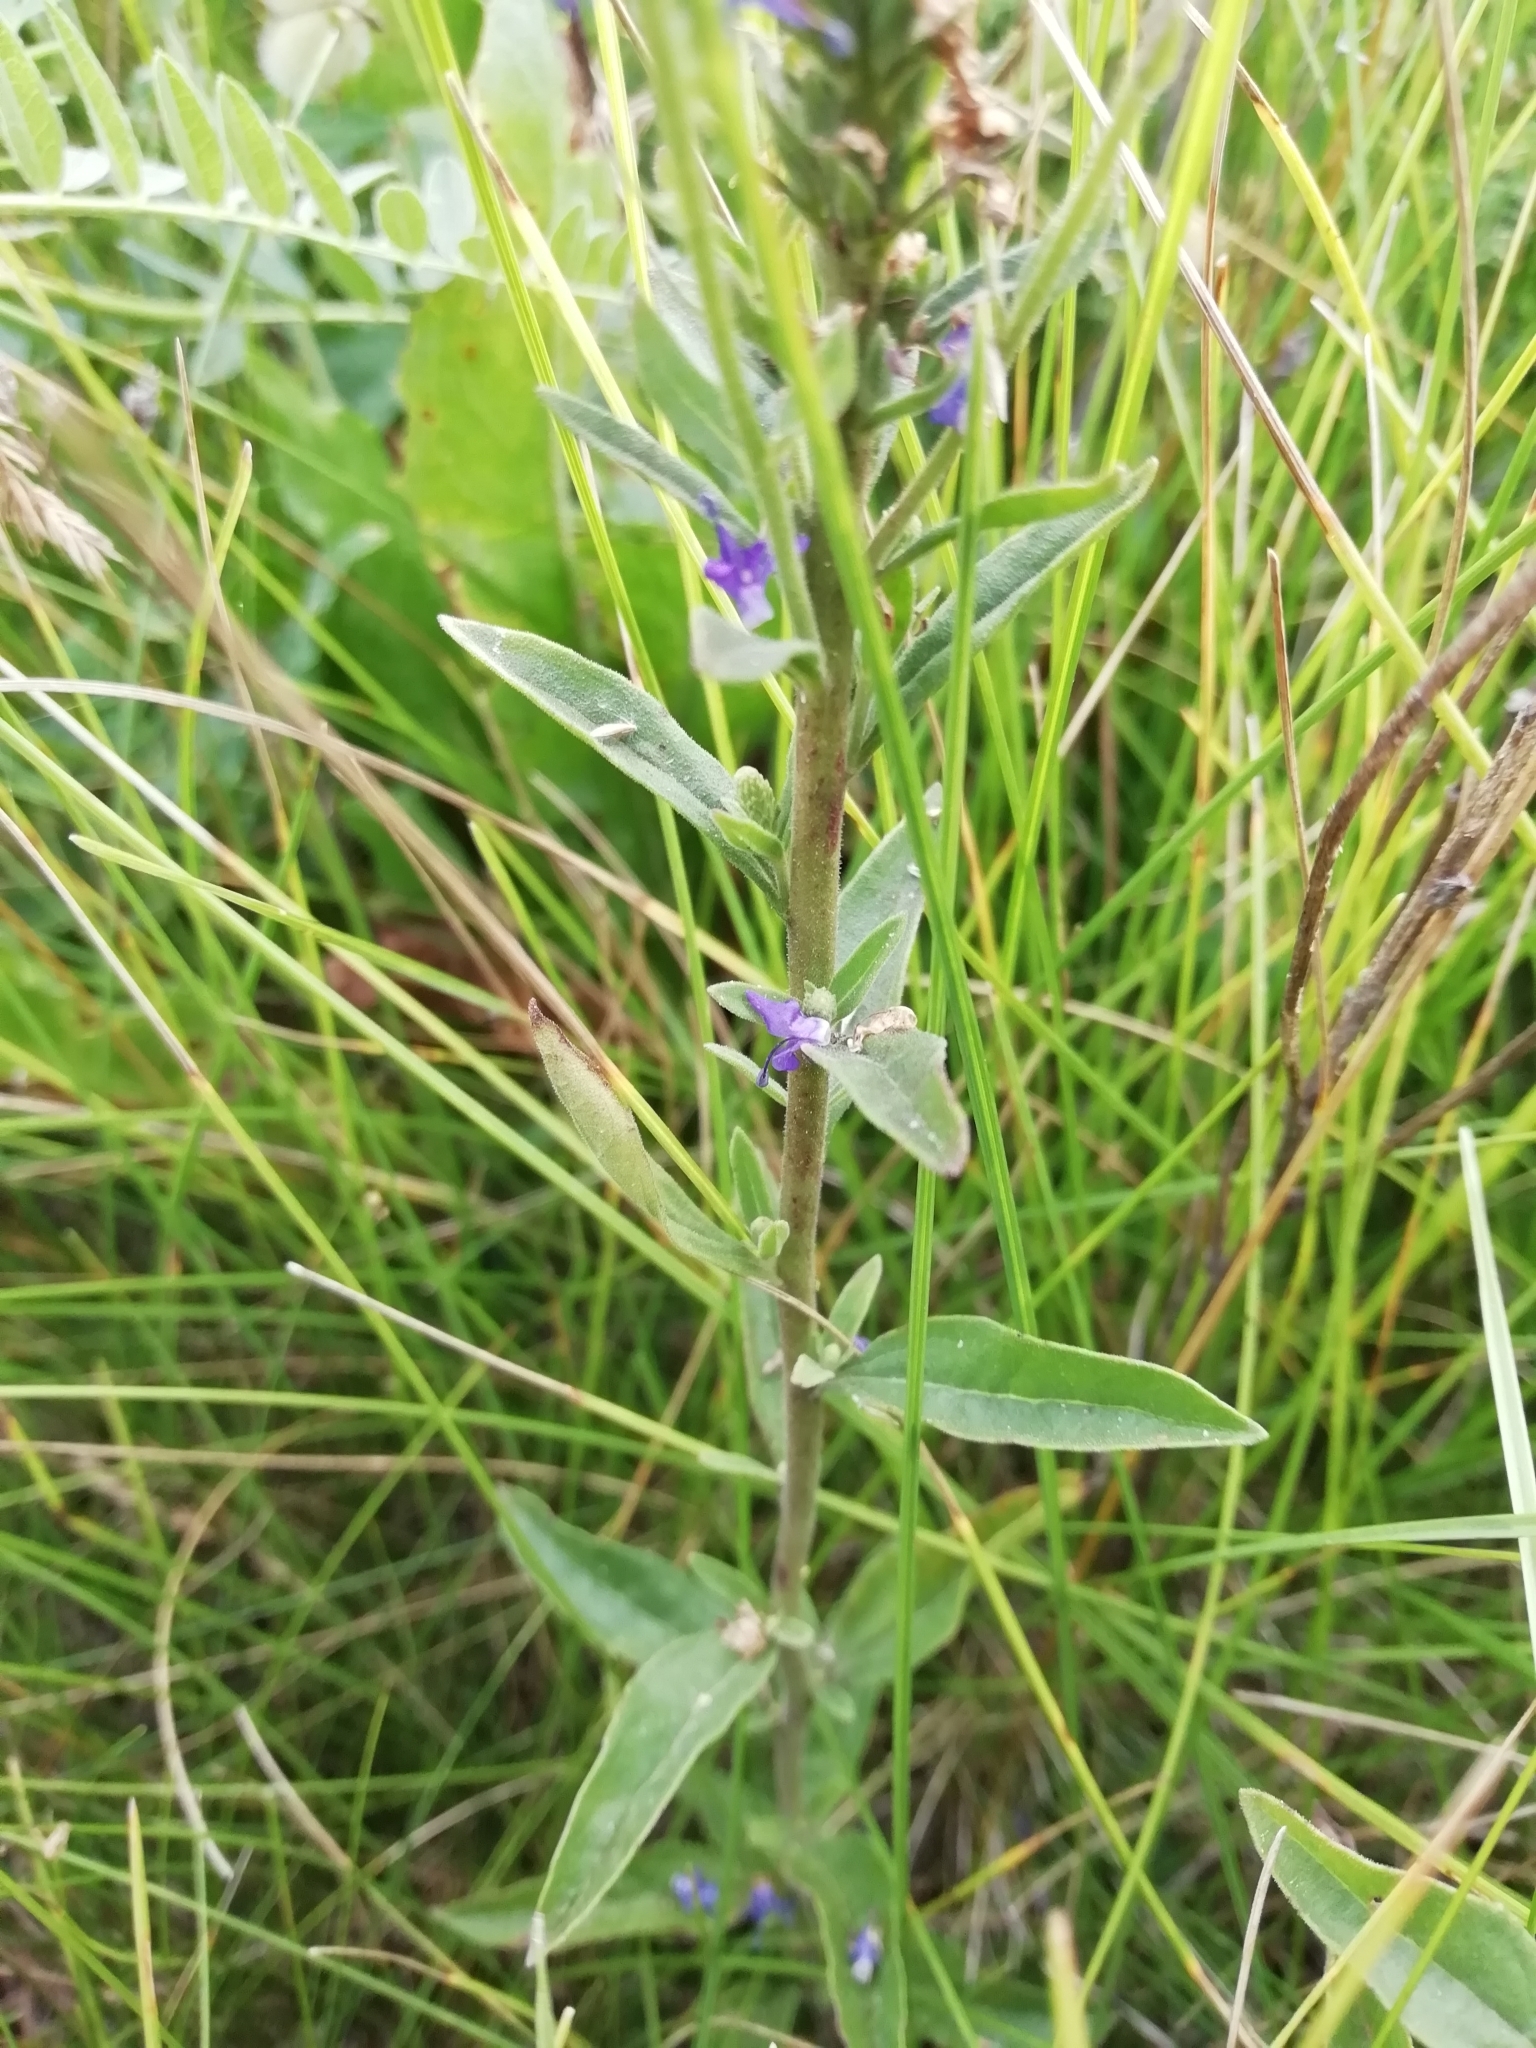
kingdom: Plantae
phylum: Tracheophyta
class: Magnoliopsida
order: Lamiales
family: Plantaginaceae
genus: Veronica
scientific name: Veronica spicata
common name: Spiked speedwell
